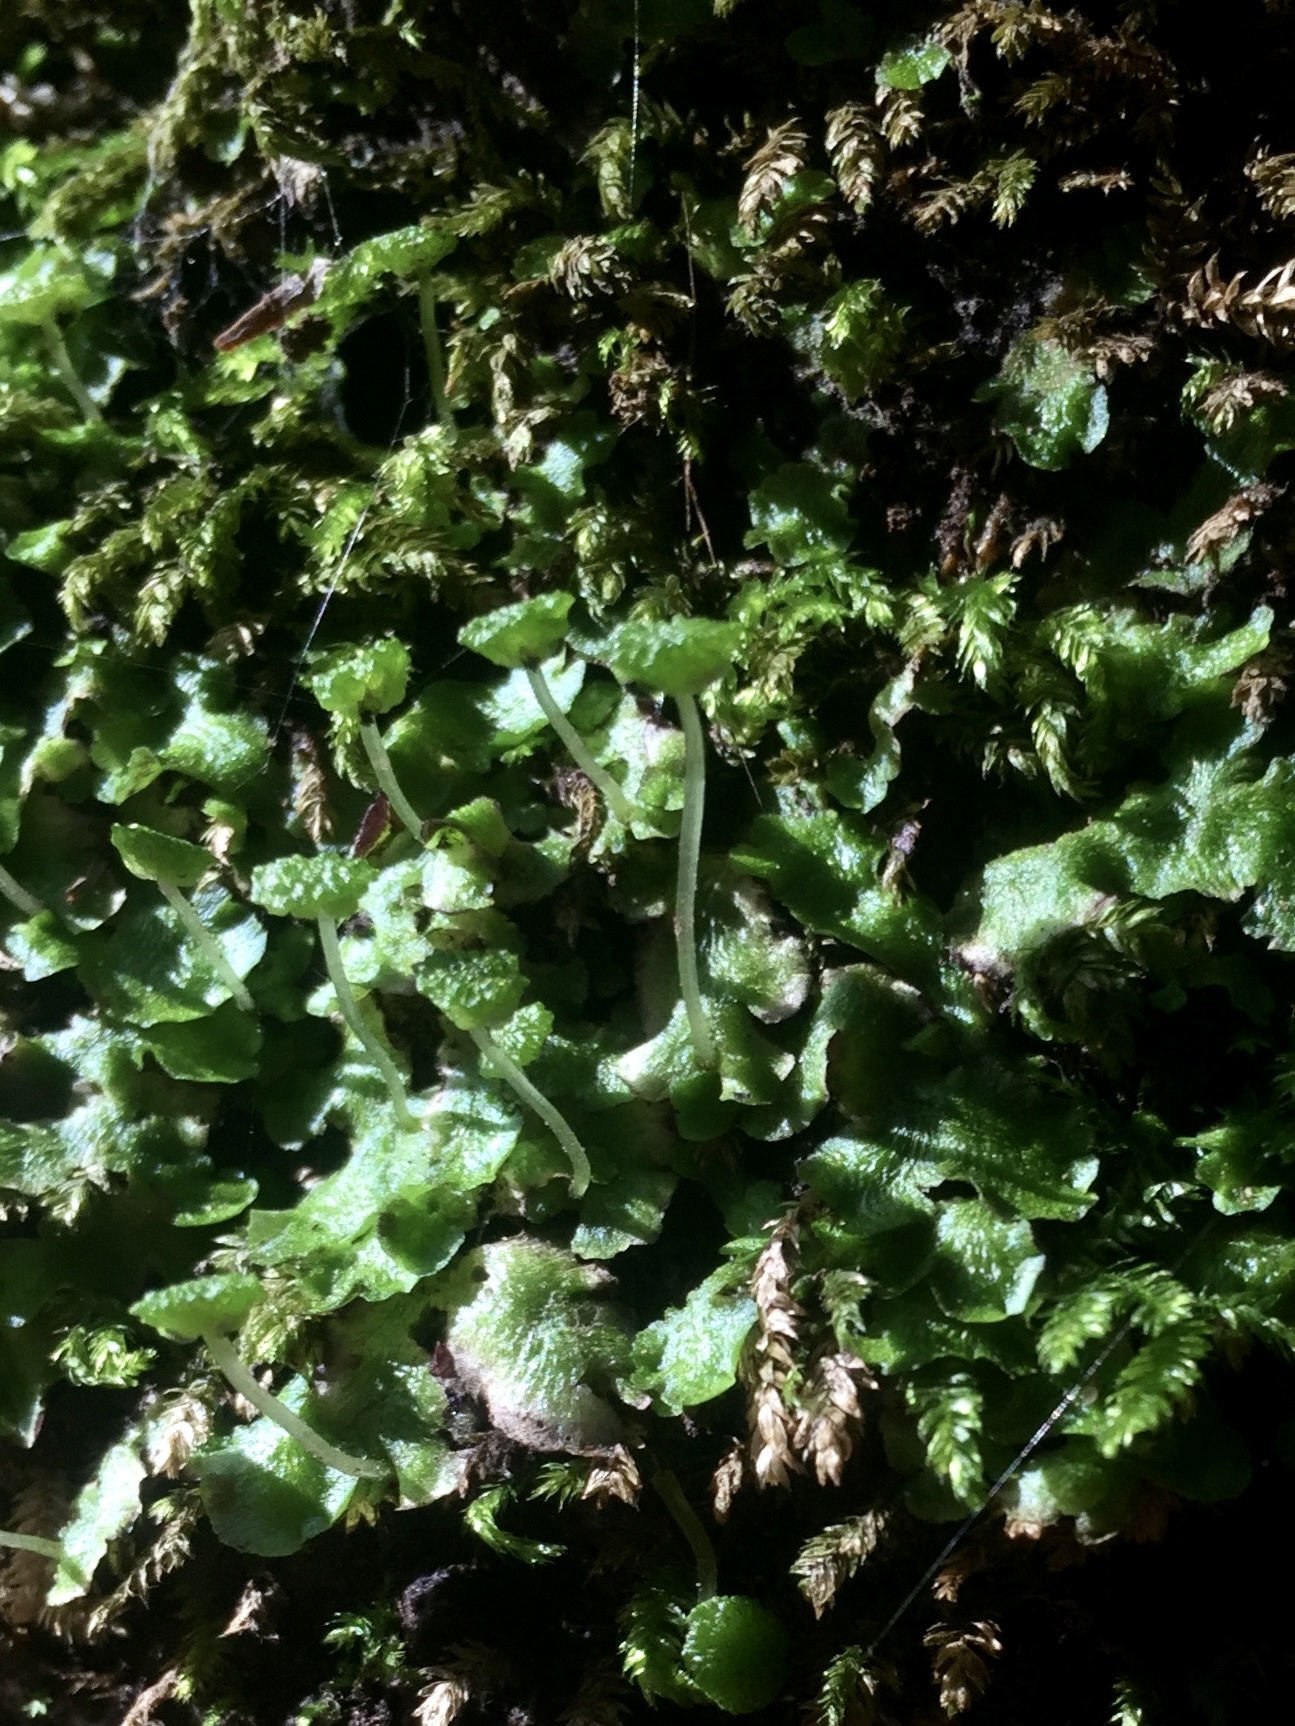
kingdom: Plantae
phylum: Marchantiophyta
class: Marchantiopsida
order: Marchantiales
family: Aytoniaceae
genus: Cryptomitrium
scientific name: Cryptomitrium tenerum
